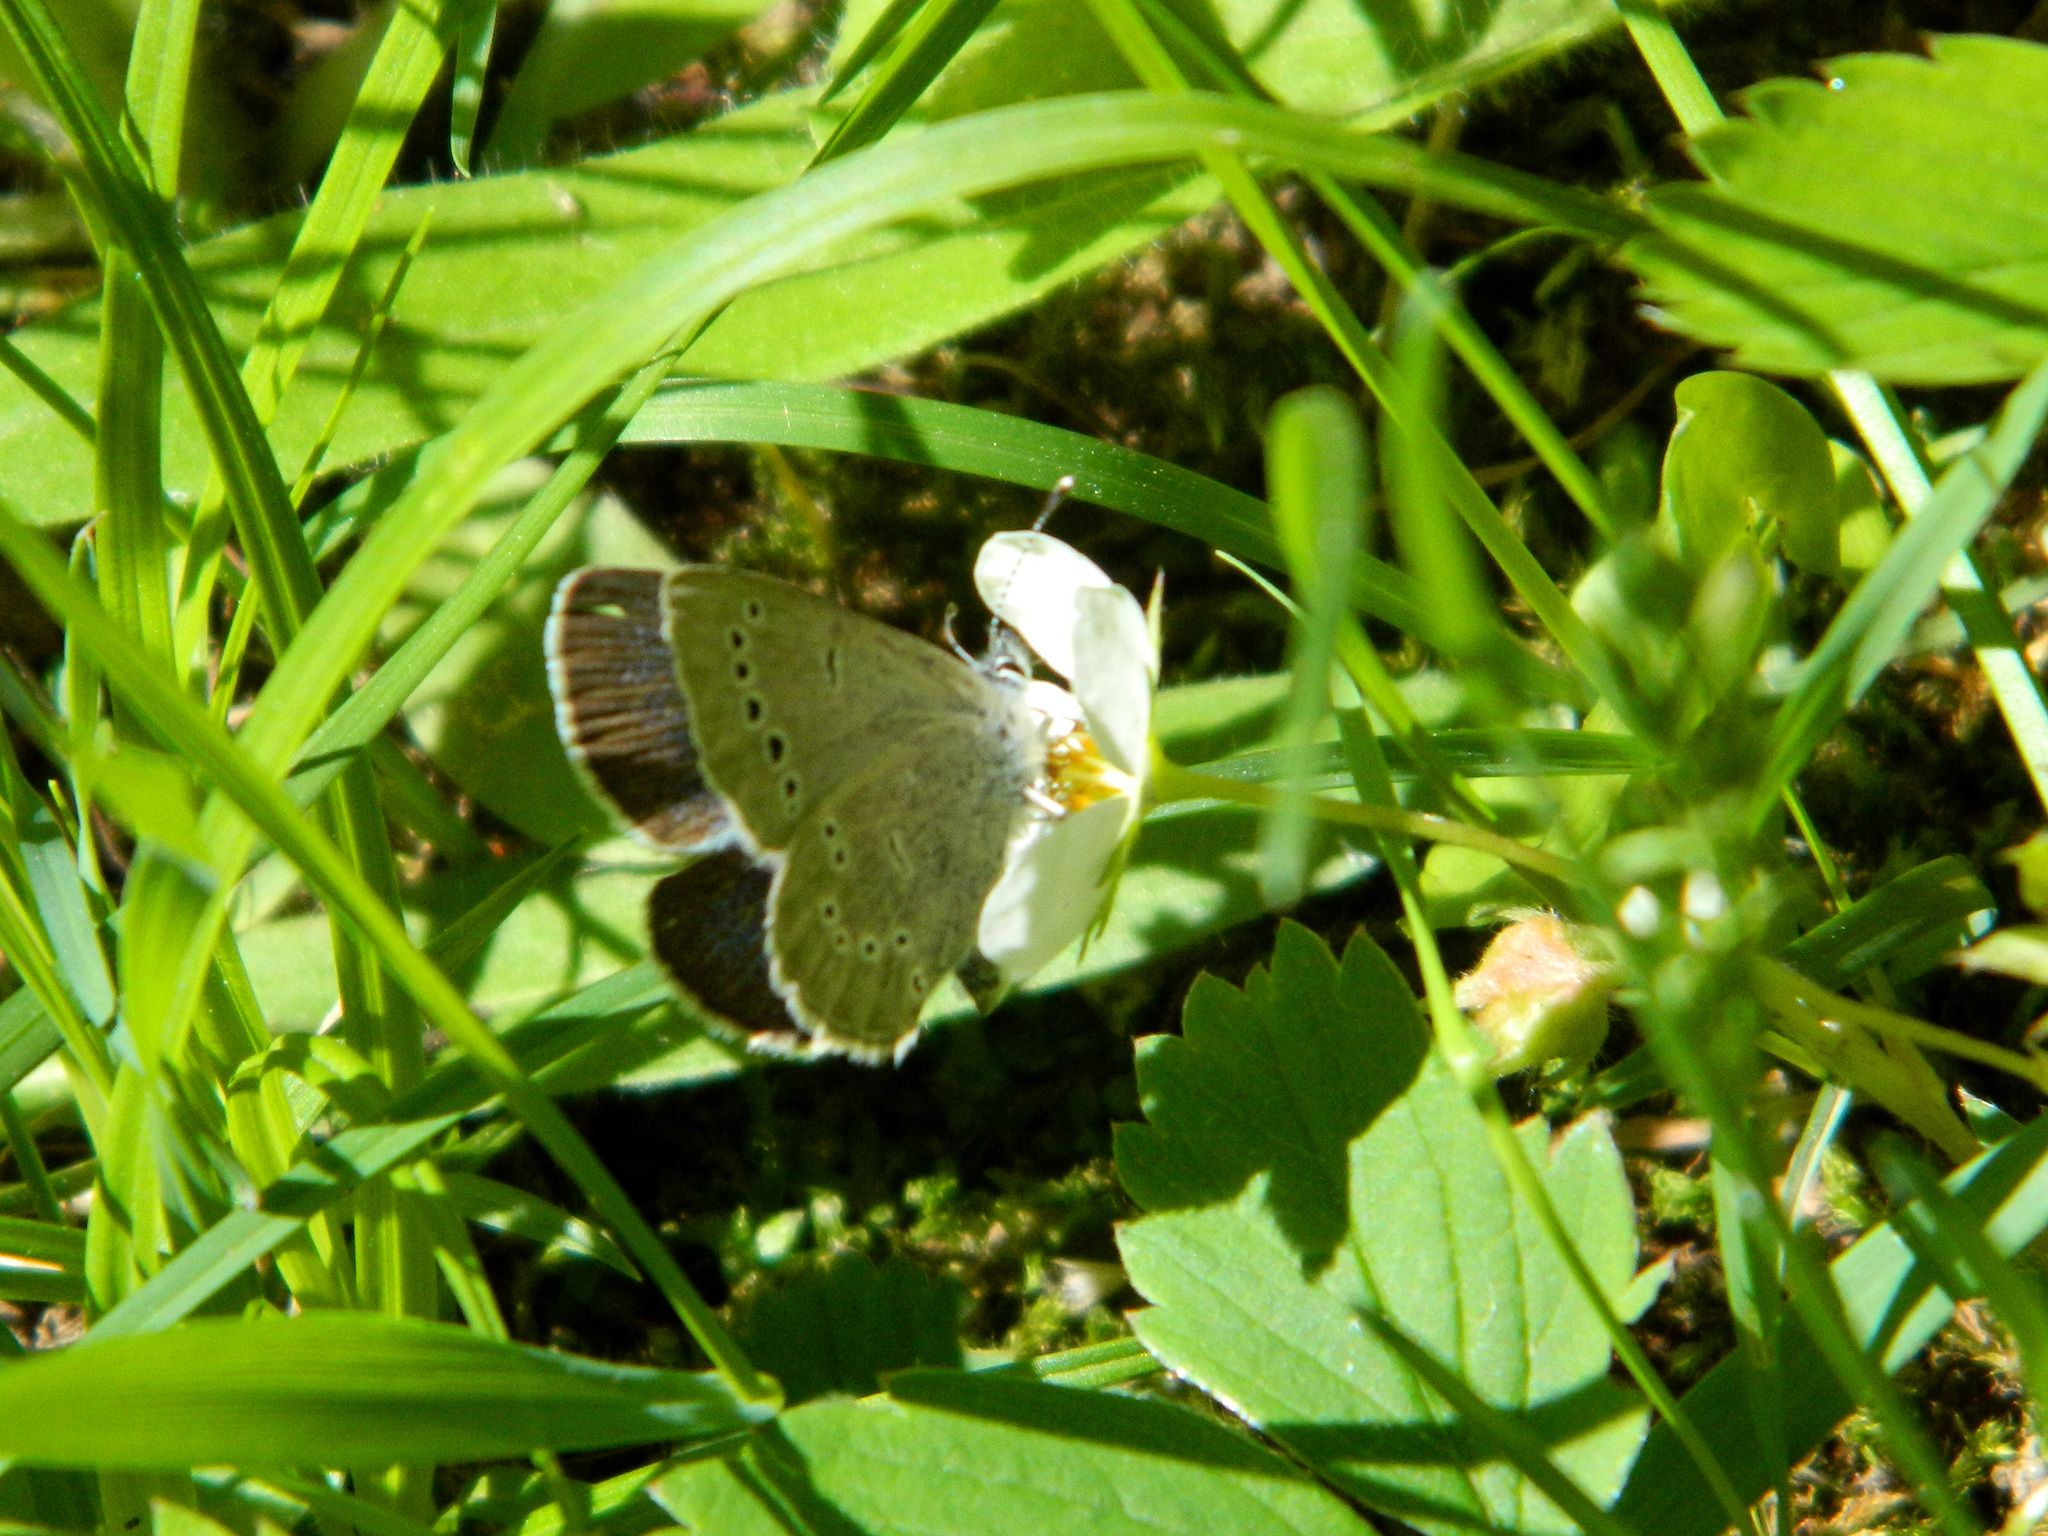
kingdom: Animalia
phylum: Arthropoda
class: Insecta
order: Lepidoptera
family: Lycaenidae
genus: Glaucopsyche
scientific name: Glaucopsyche lygdamus
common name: Silvery blue
